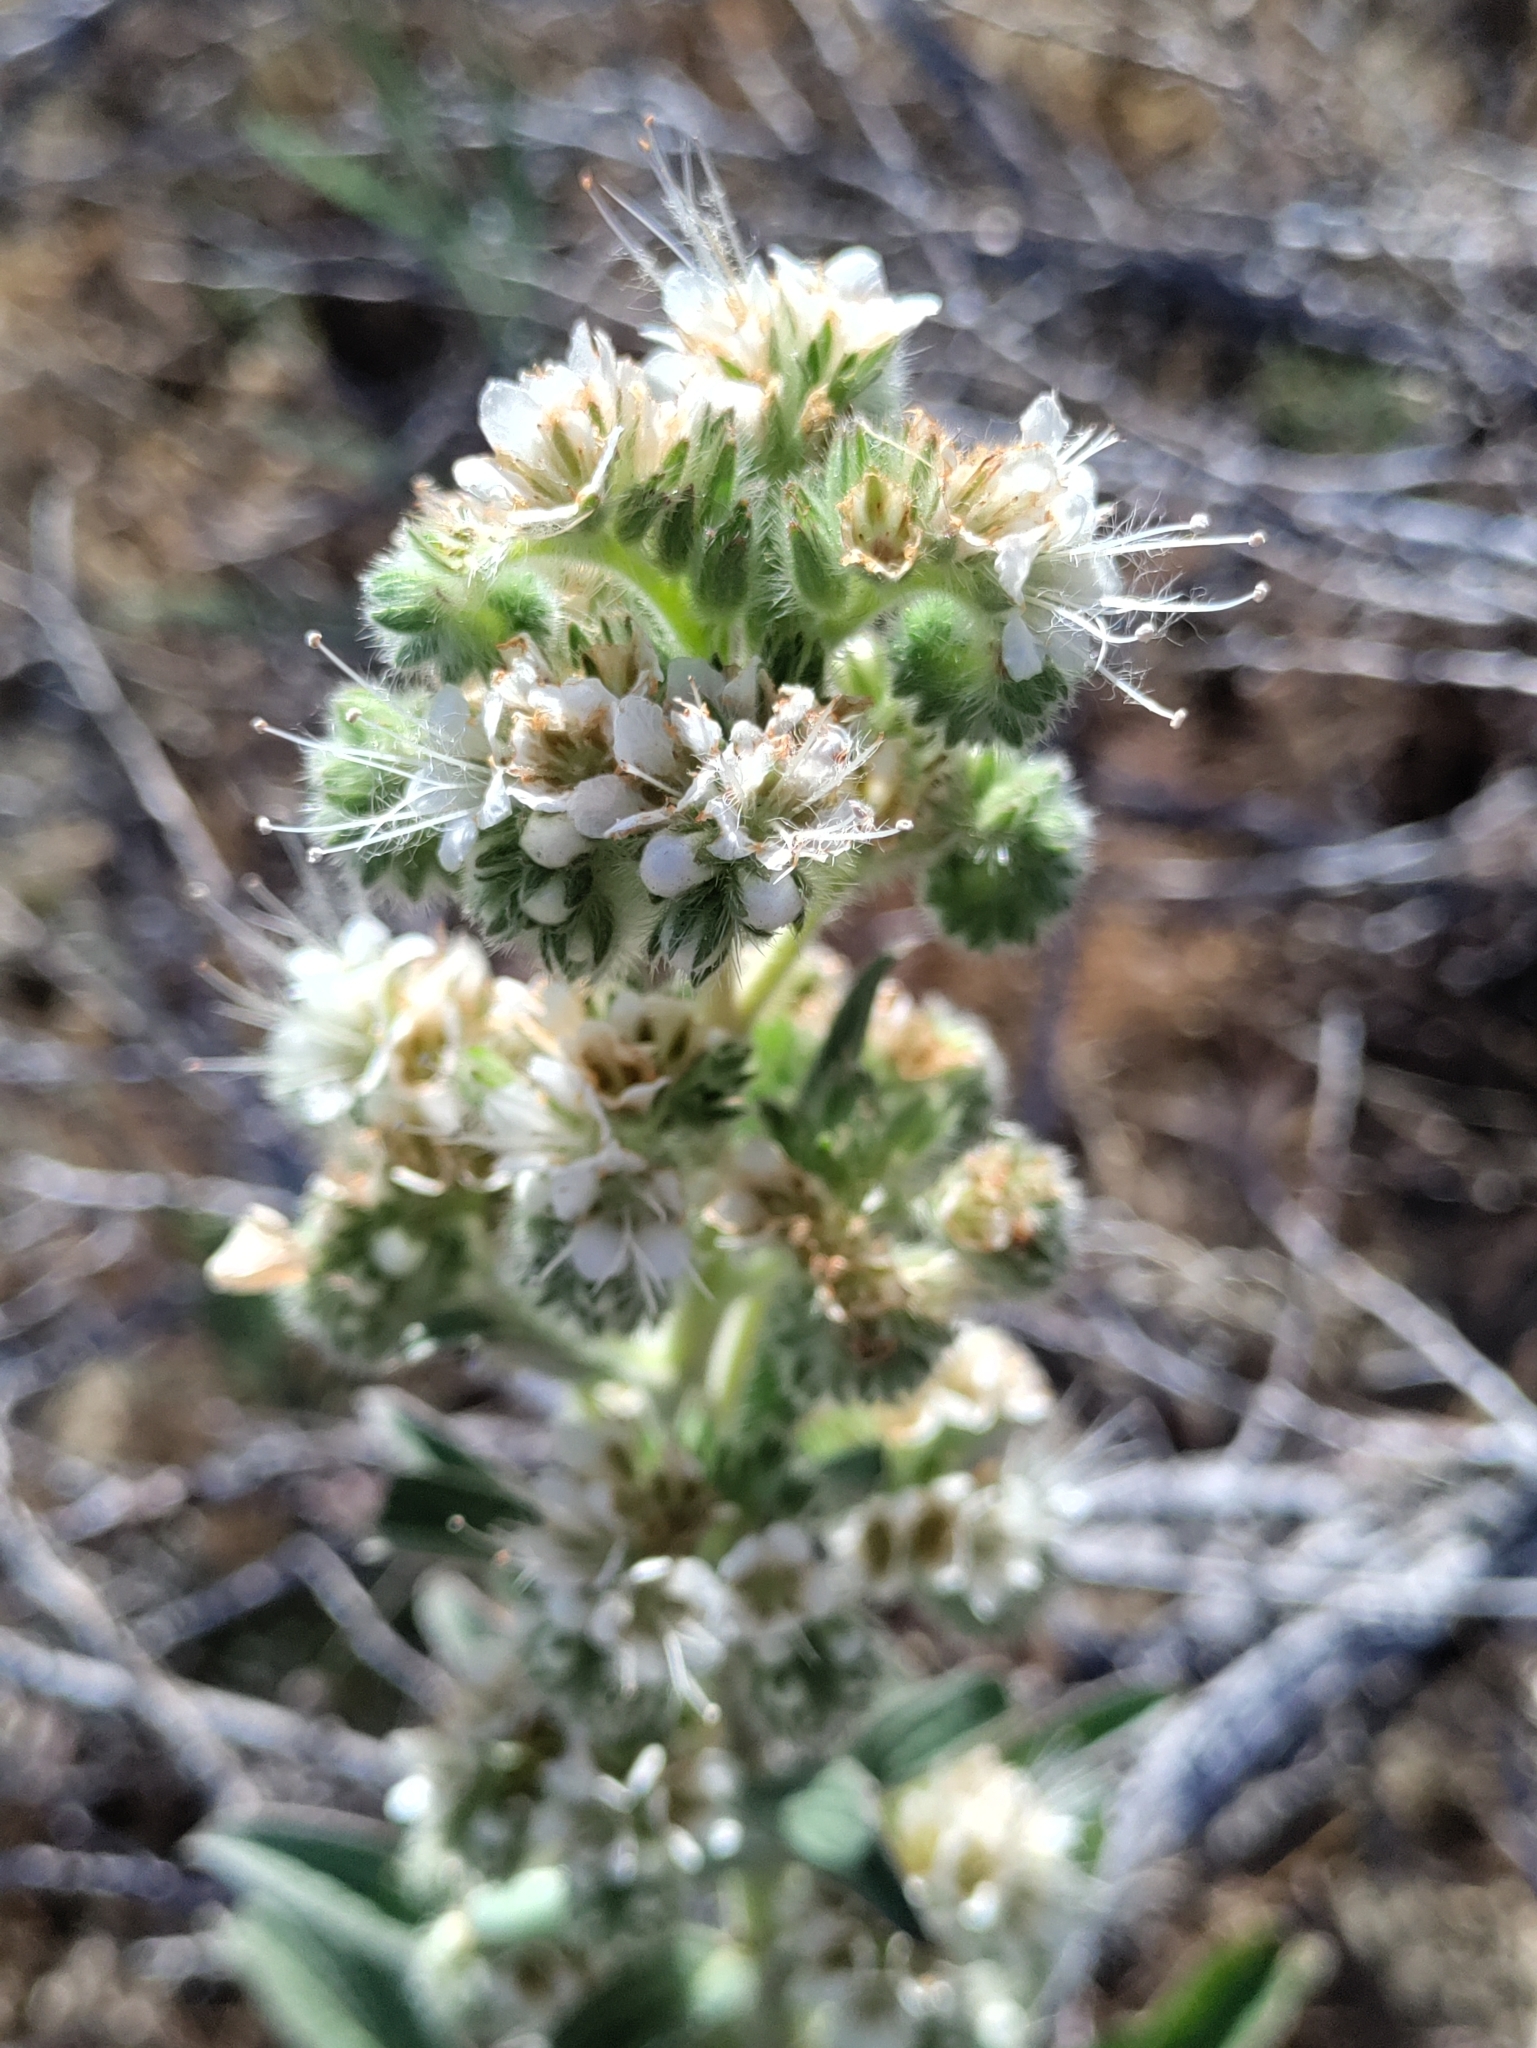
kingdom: Plantae
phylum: Tracheophyta
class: Magnoliopsida
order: Boraginales
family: Hydrophyllaceae
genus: Phacelia
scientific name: Phacelia heterophylla
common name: Variable-leaved phacelia
